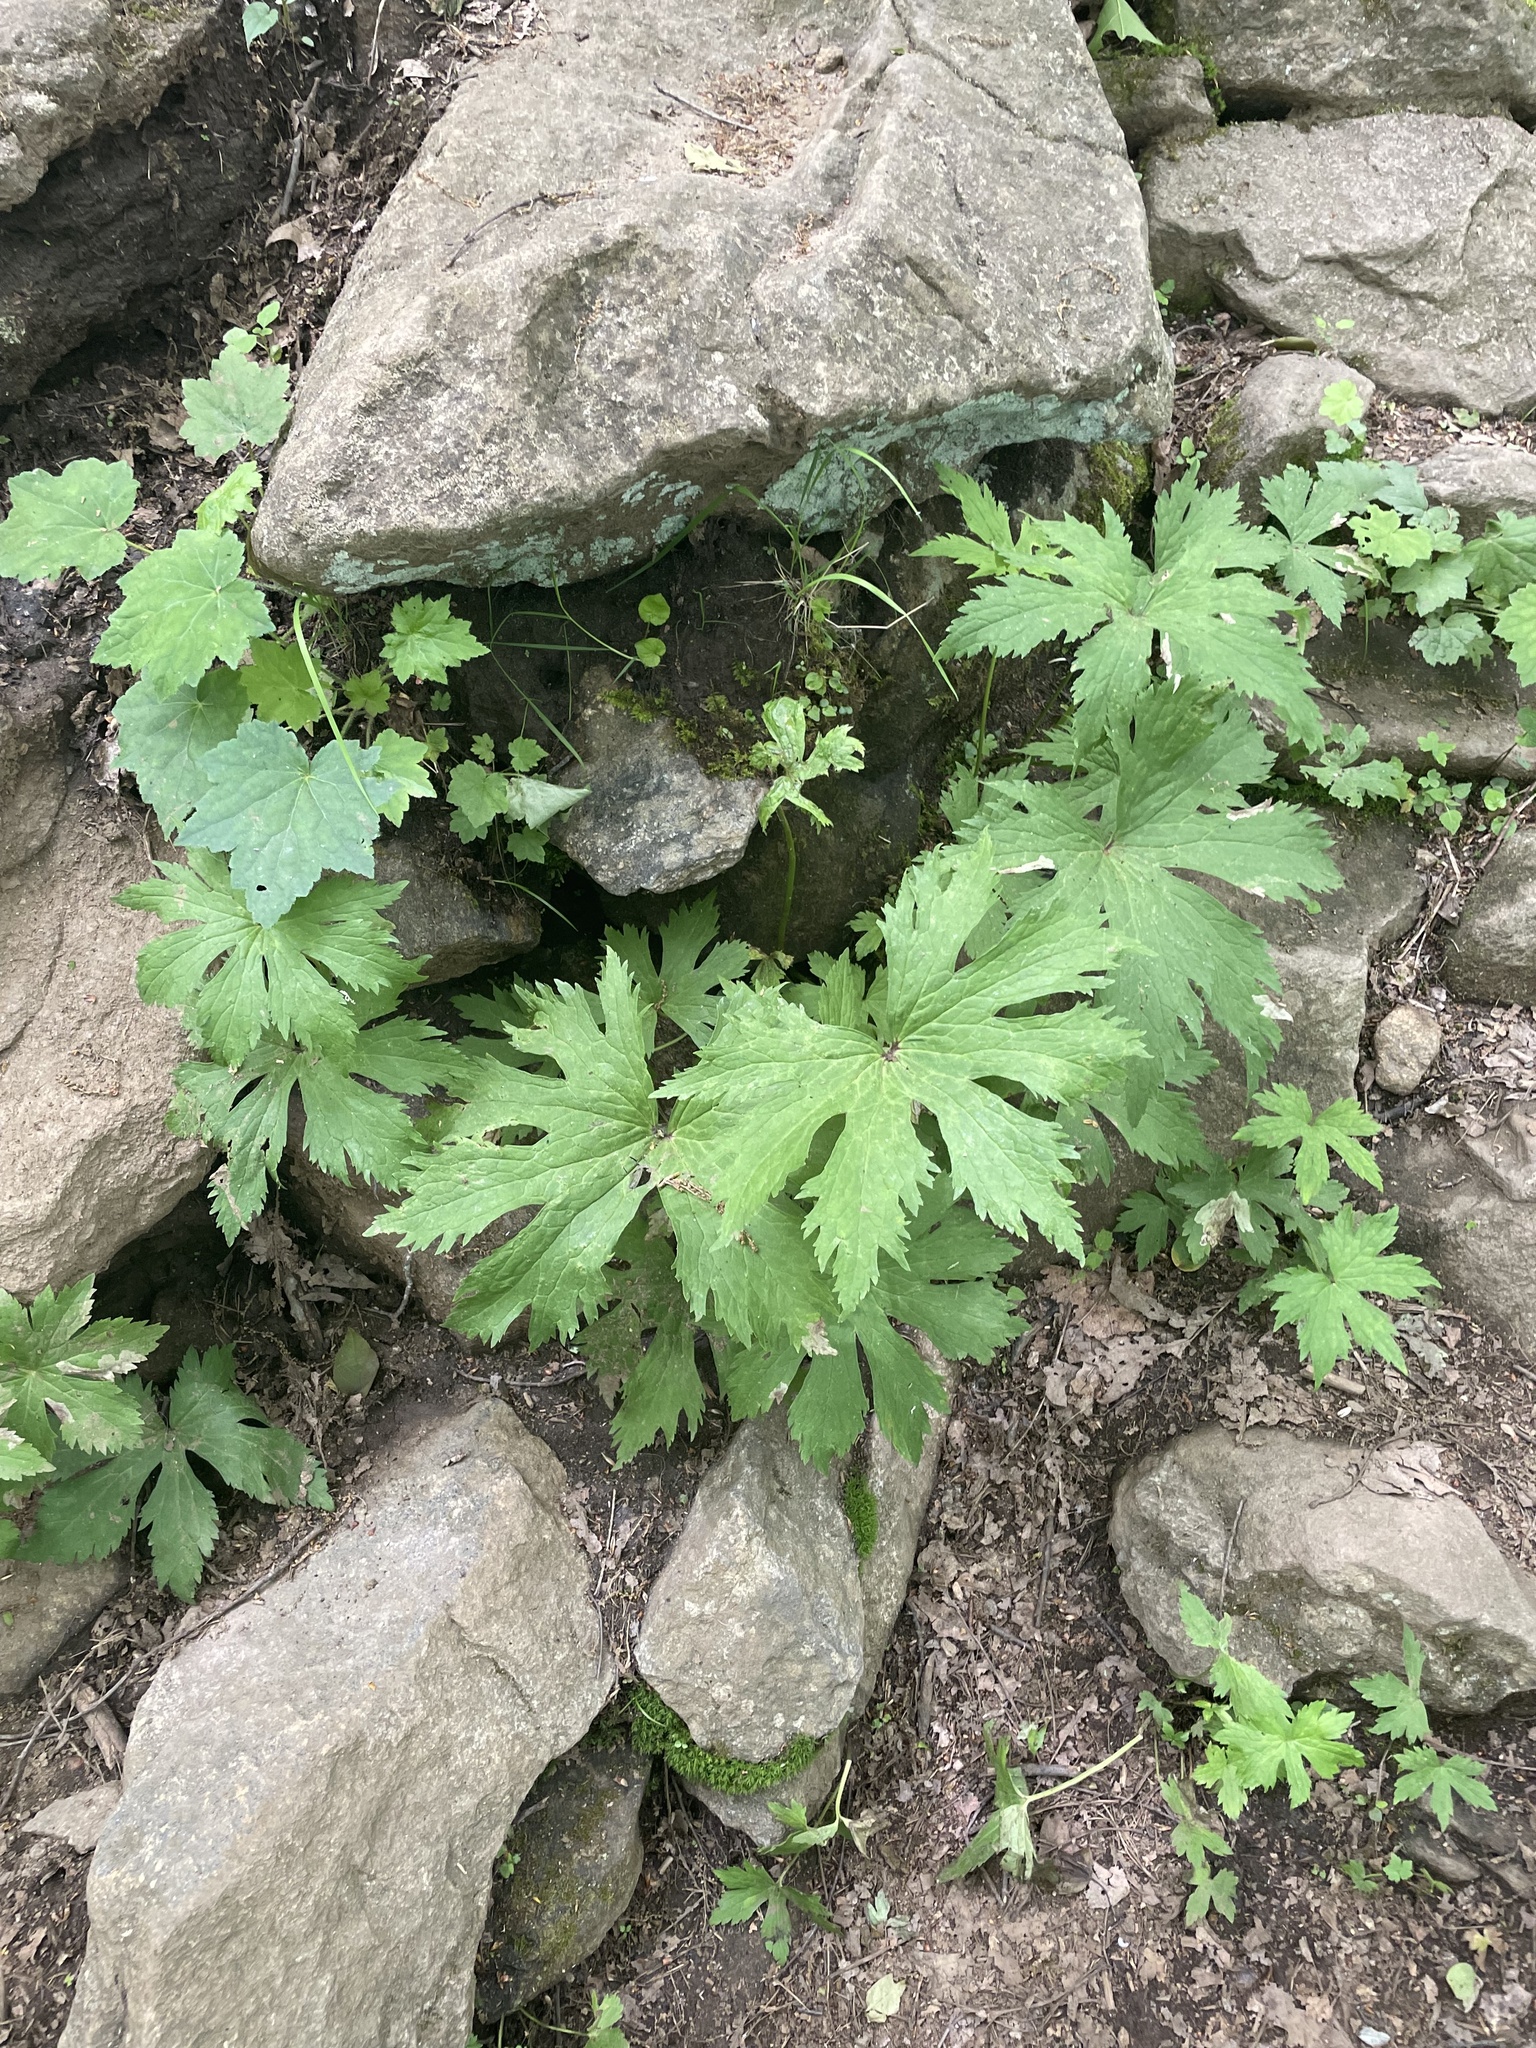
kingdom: Plantae
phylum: Tracheophyta
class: Magnoliopsida
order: Ranunculales
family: Ranunculaceae
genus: Trautvetteria
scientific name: Trautvetteria carolinensis
